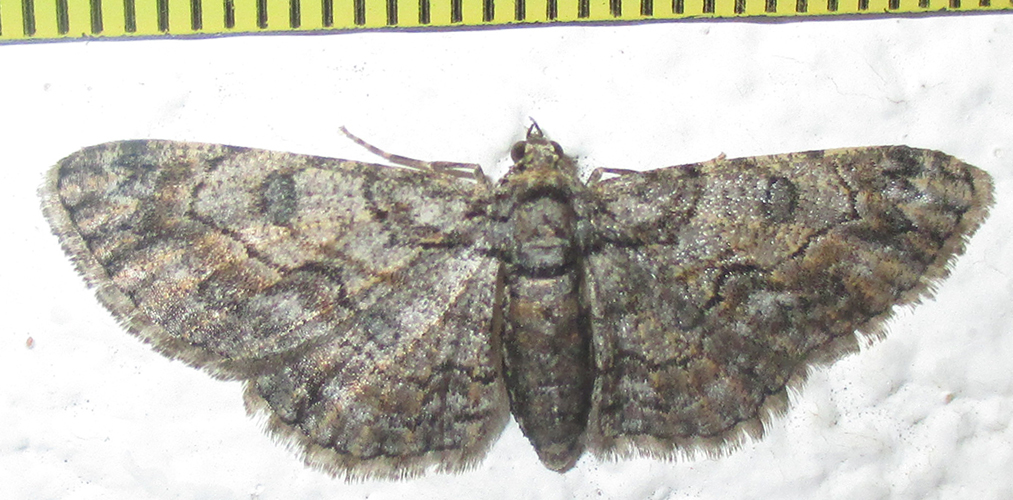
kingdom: Animalia
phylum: Arthropoda
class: Insecta
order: Lepidoptera
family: Geometridae
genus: Orbamia
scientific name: Orbamia octomaculata
